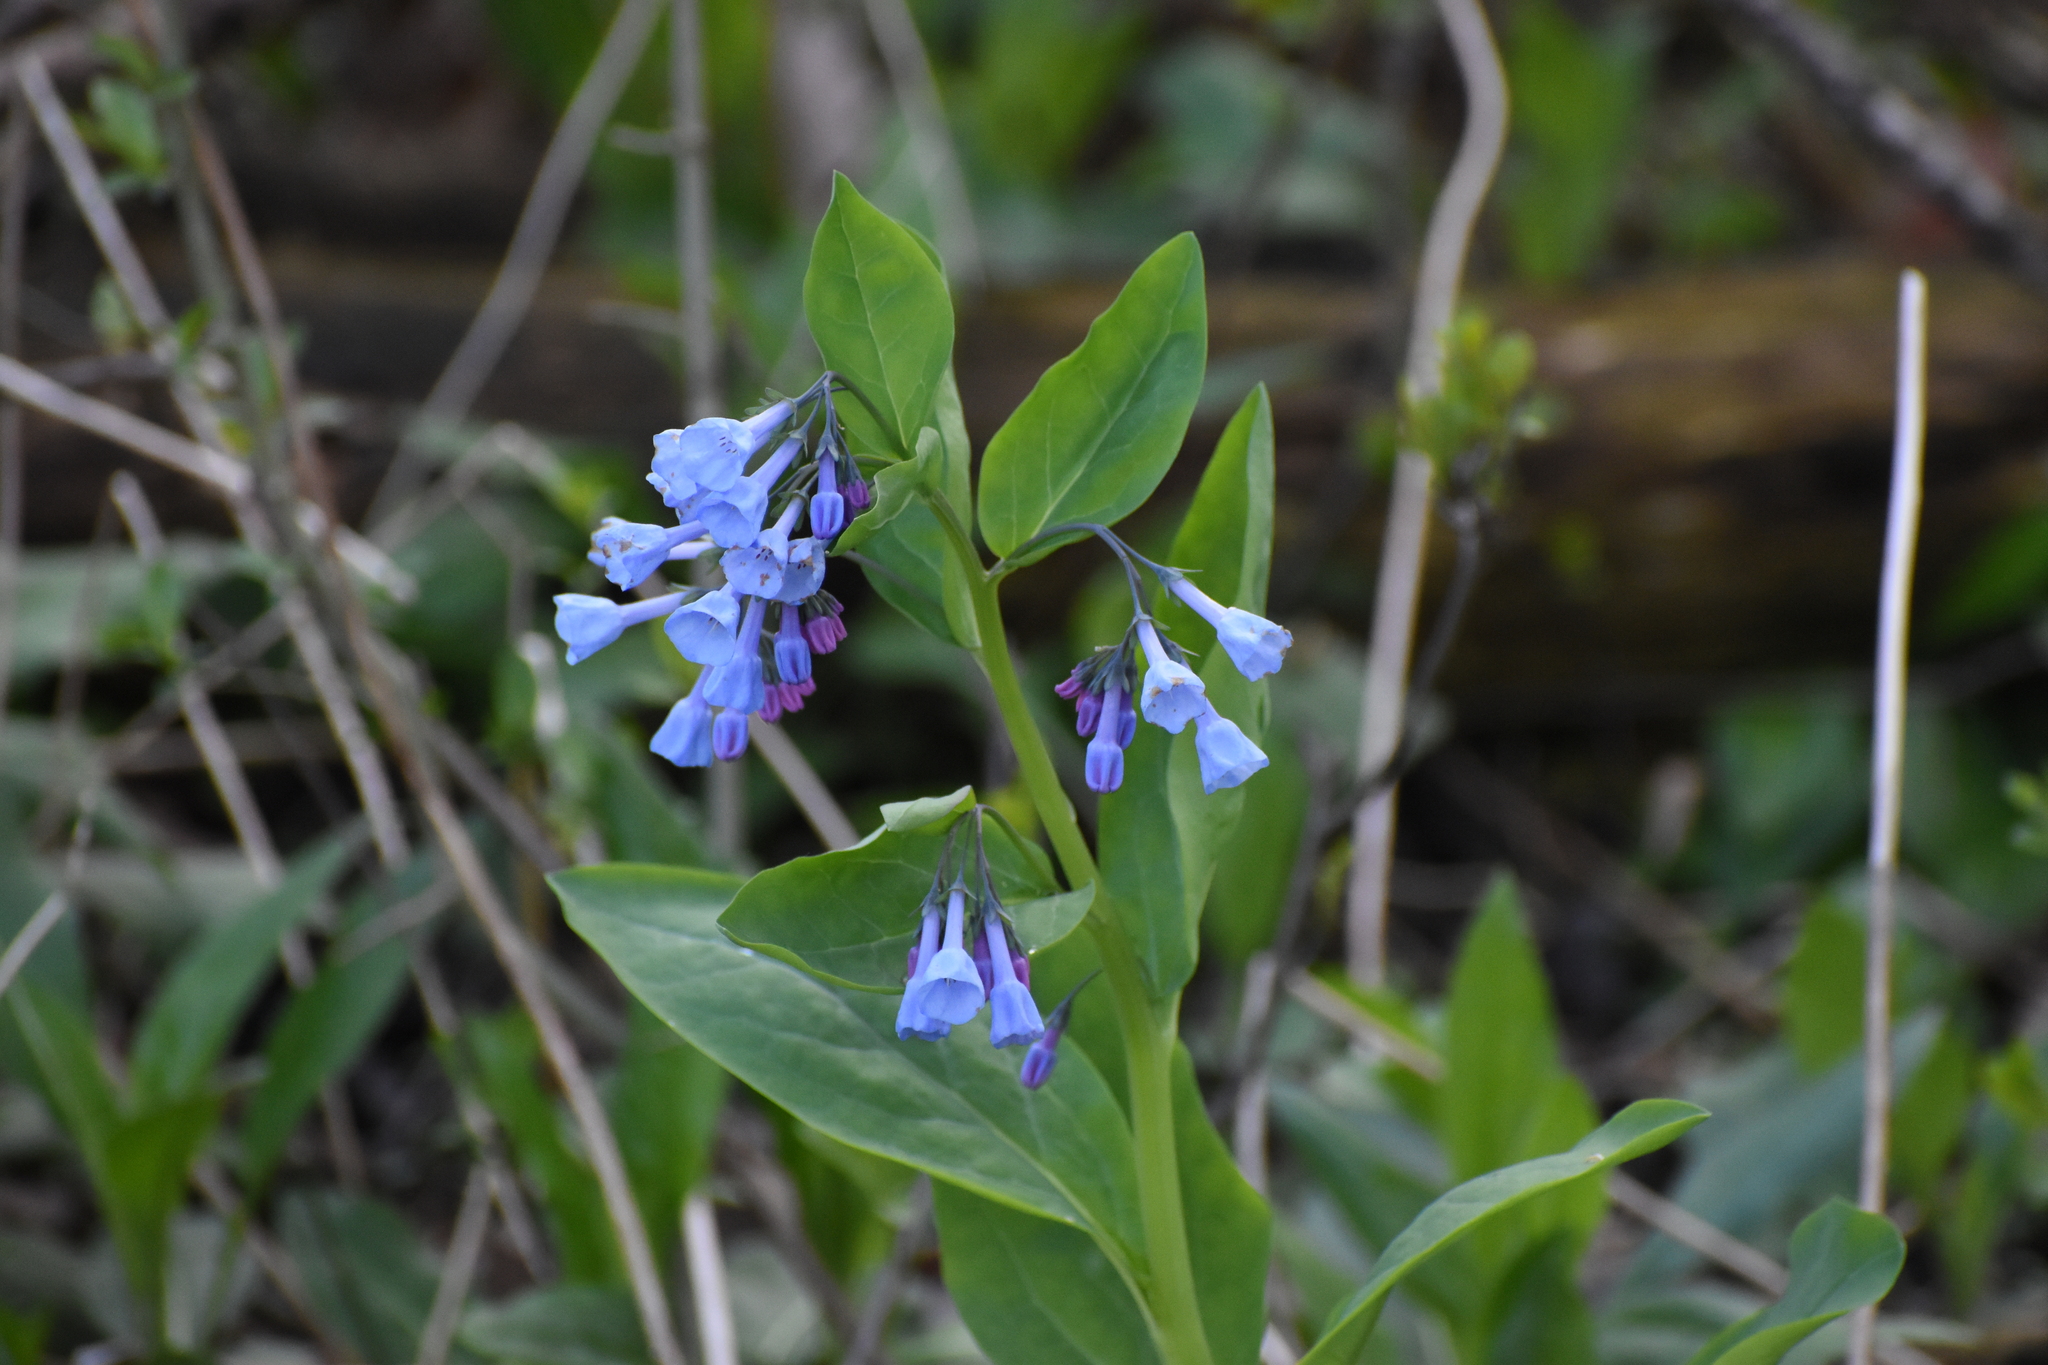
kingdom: Plantae
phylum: Tracheophyta
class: Magnoliopsida
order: Boraginales
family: Boraginaceae
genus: Mertensia
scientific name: Mertensia virginica
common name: Virginia bluebells
